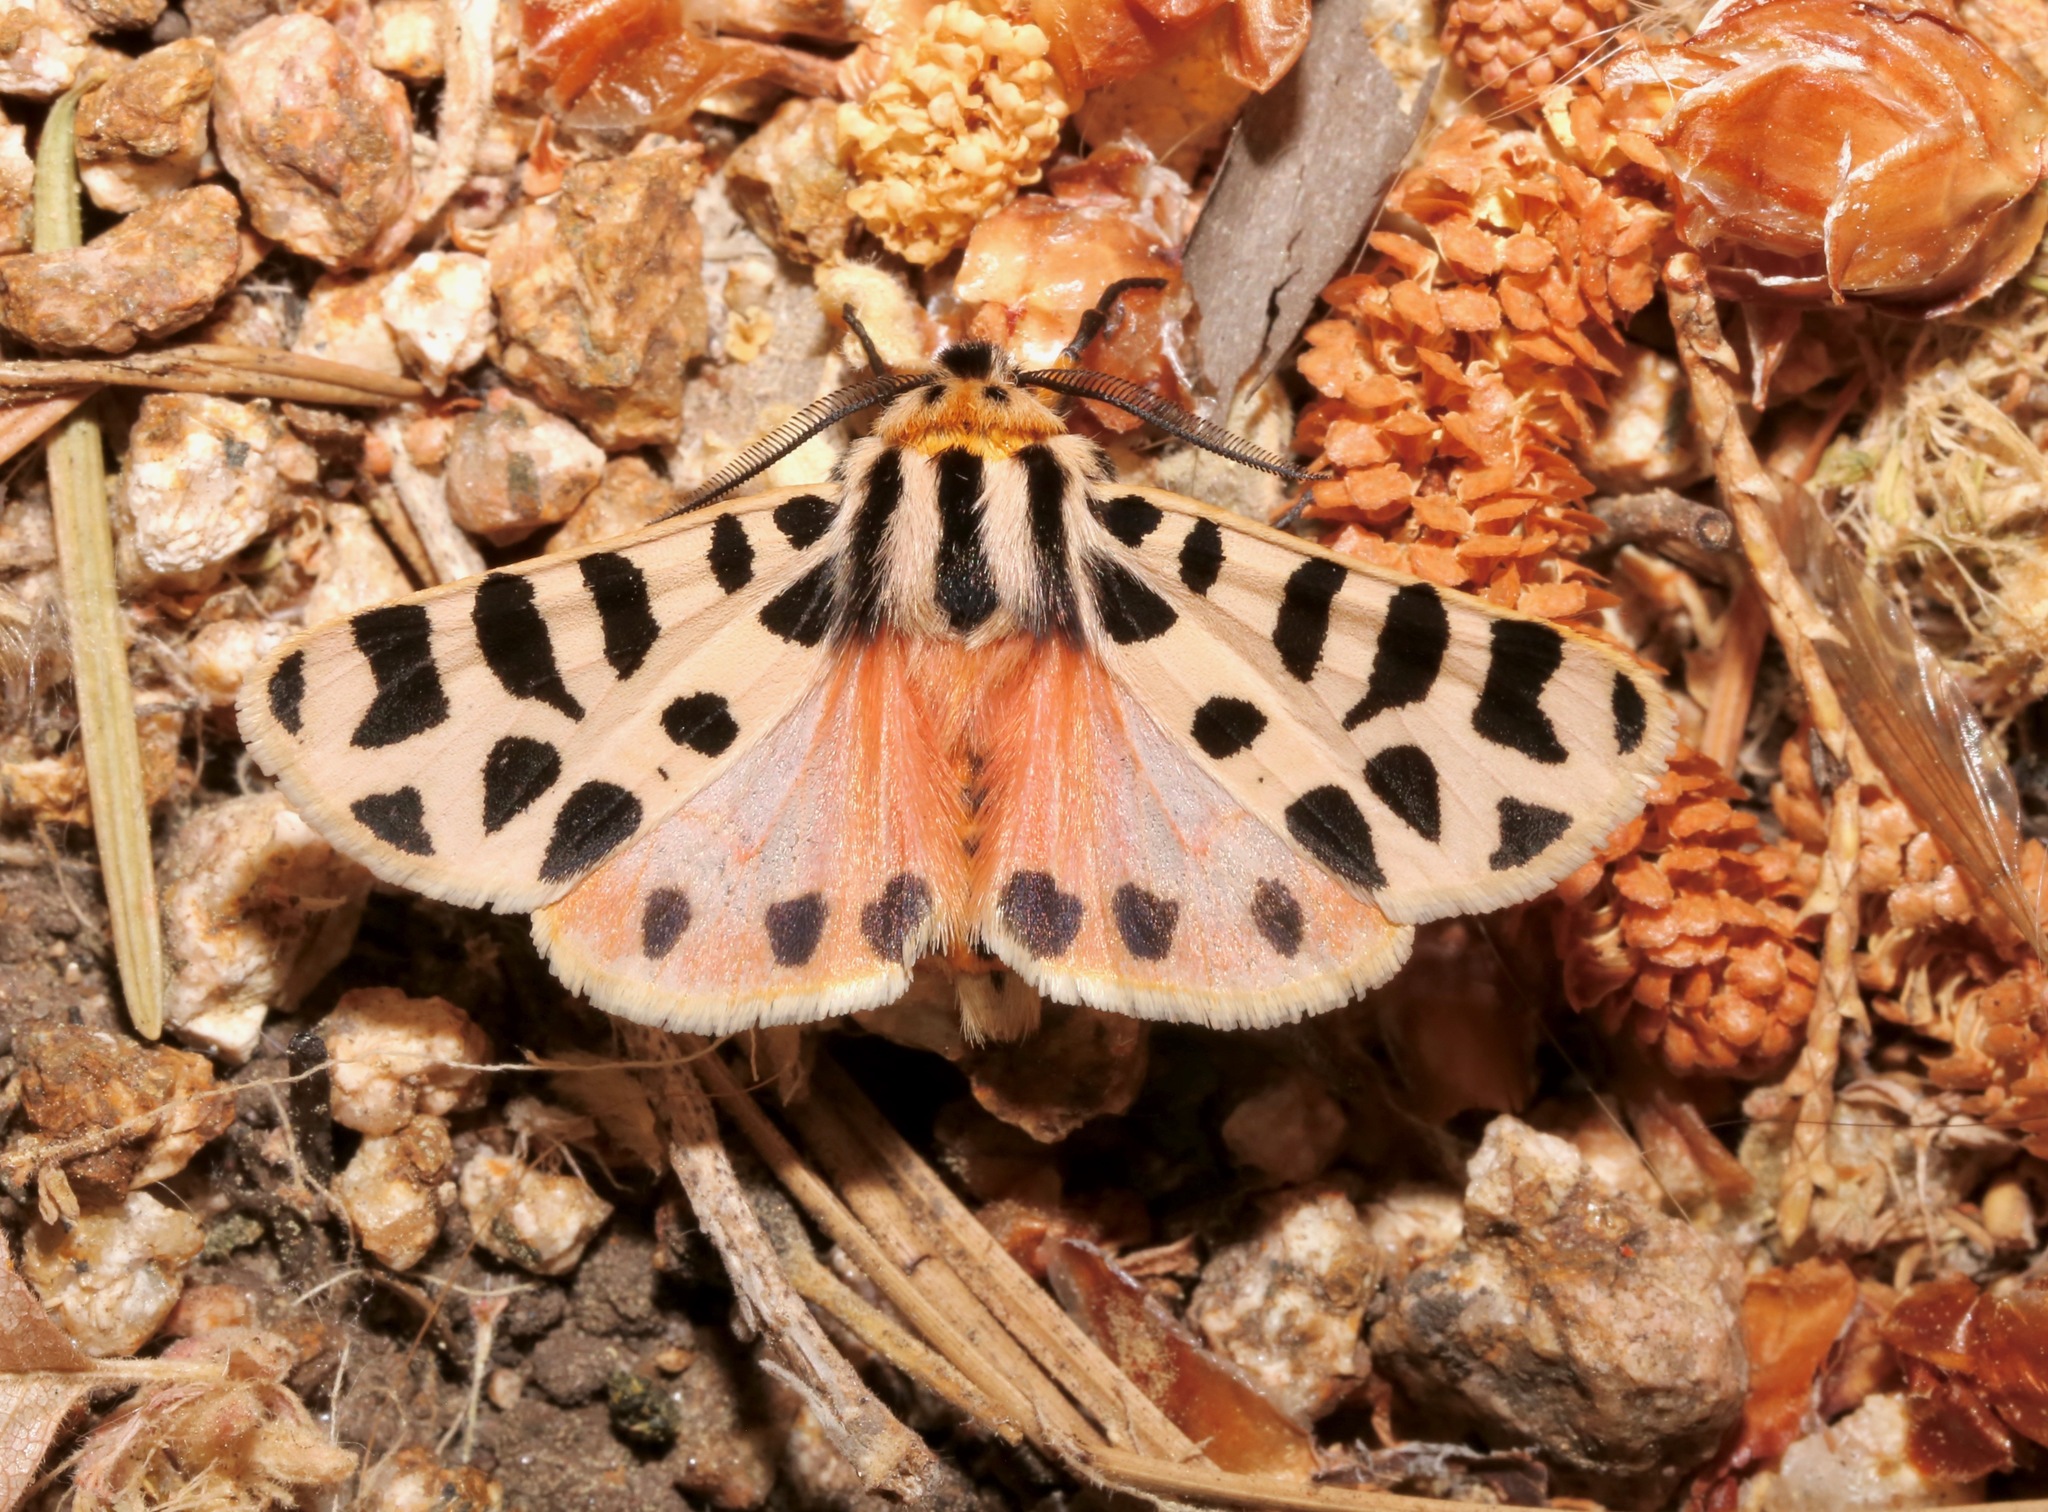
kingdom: Animalia
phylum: Arthropoda
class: Insecta
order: Lepidoptera
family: Erebidae
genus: Apantesis
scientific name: Apantesis incorrupta
